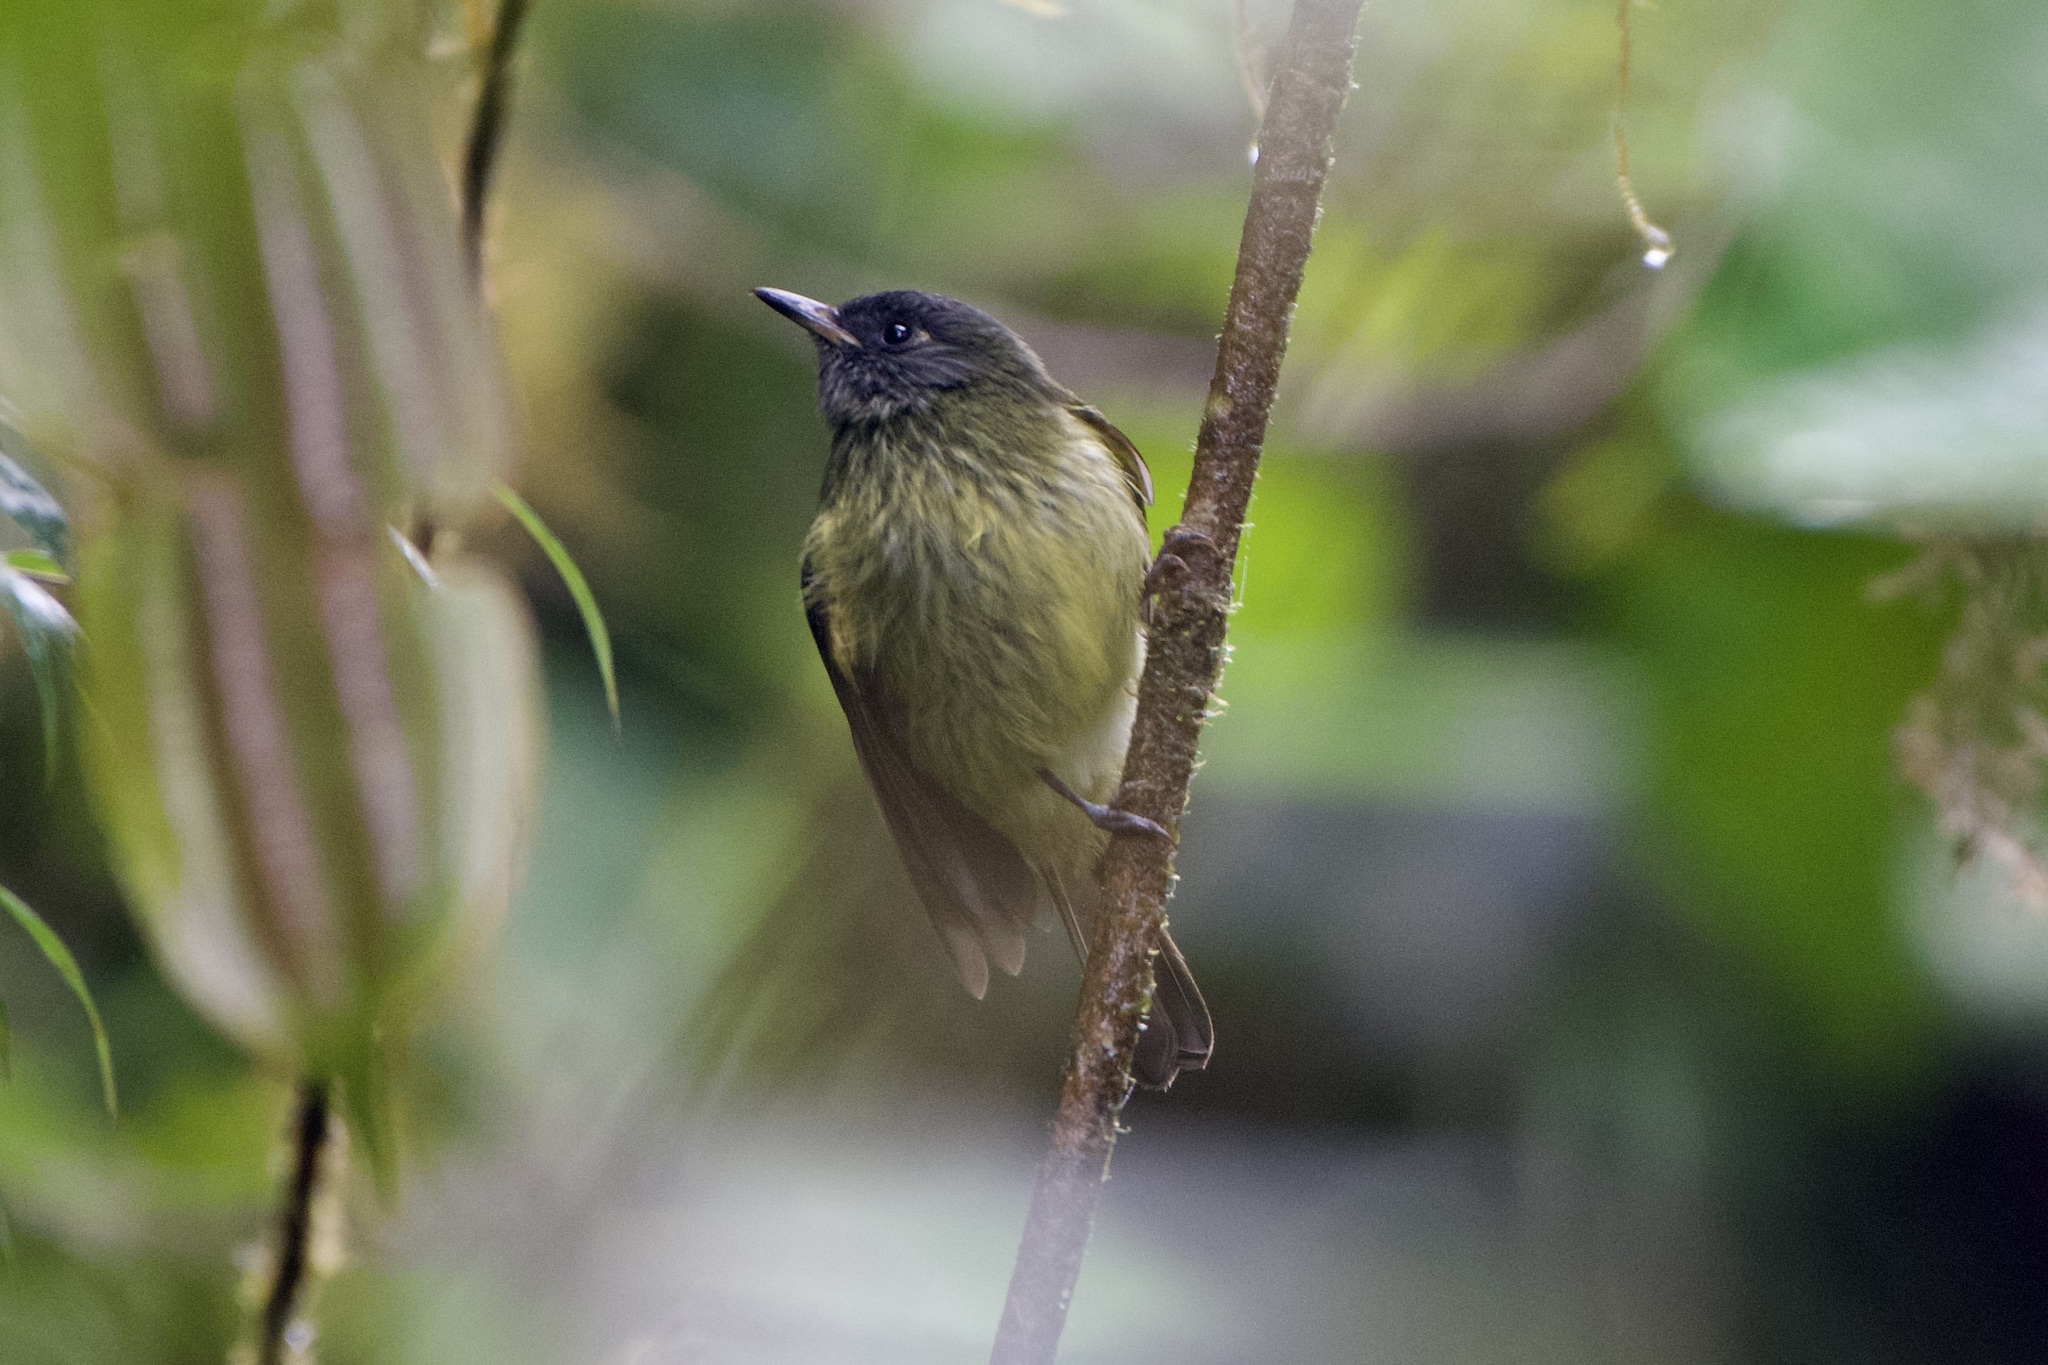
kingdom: Animalia
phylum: Chordata
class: Aves
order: Passeriformes
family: Tyrannidae
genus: Mionectes
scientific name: Mionectes striaticollis
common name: Streak-necked flycatcher
